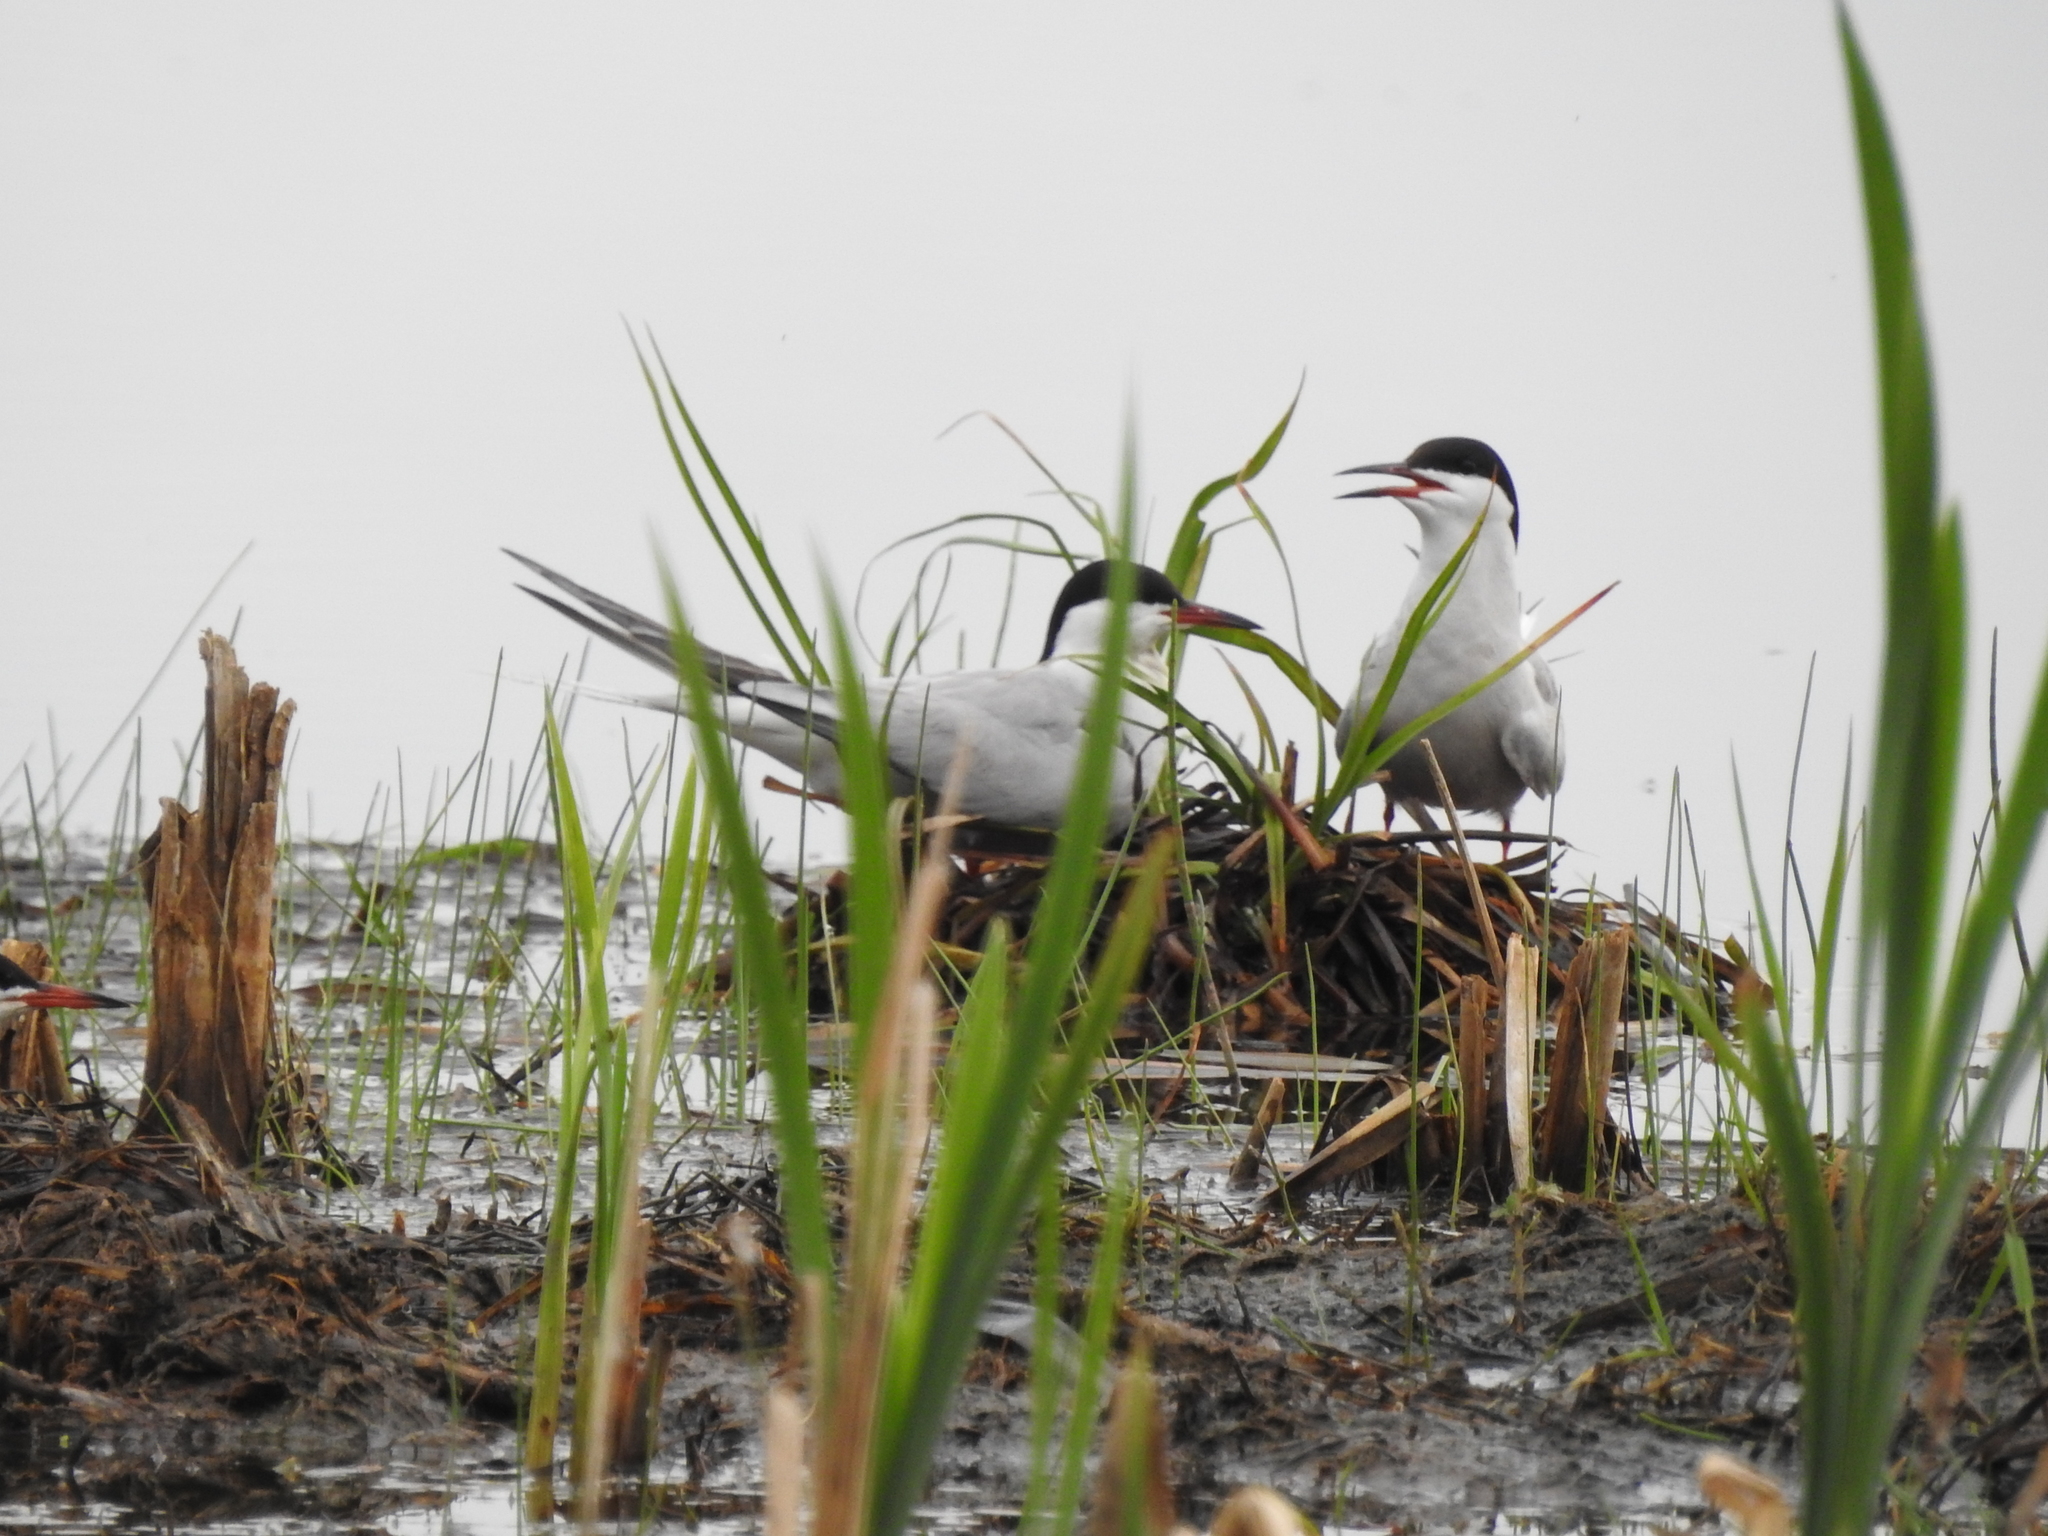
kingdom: Animalia
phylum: Chordata
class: Aves
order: Charadriiformes
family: Laridae
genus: Sterna
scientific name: Sterna hirundo
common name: Common tern
